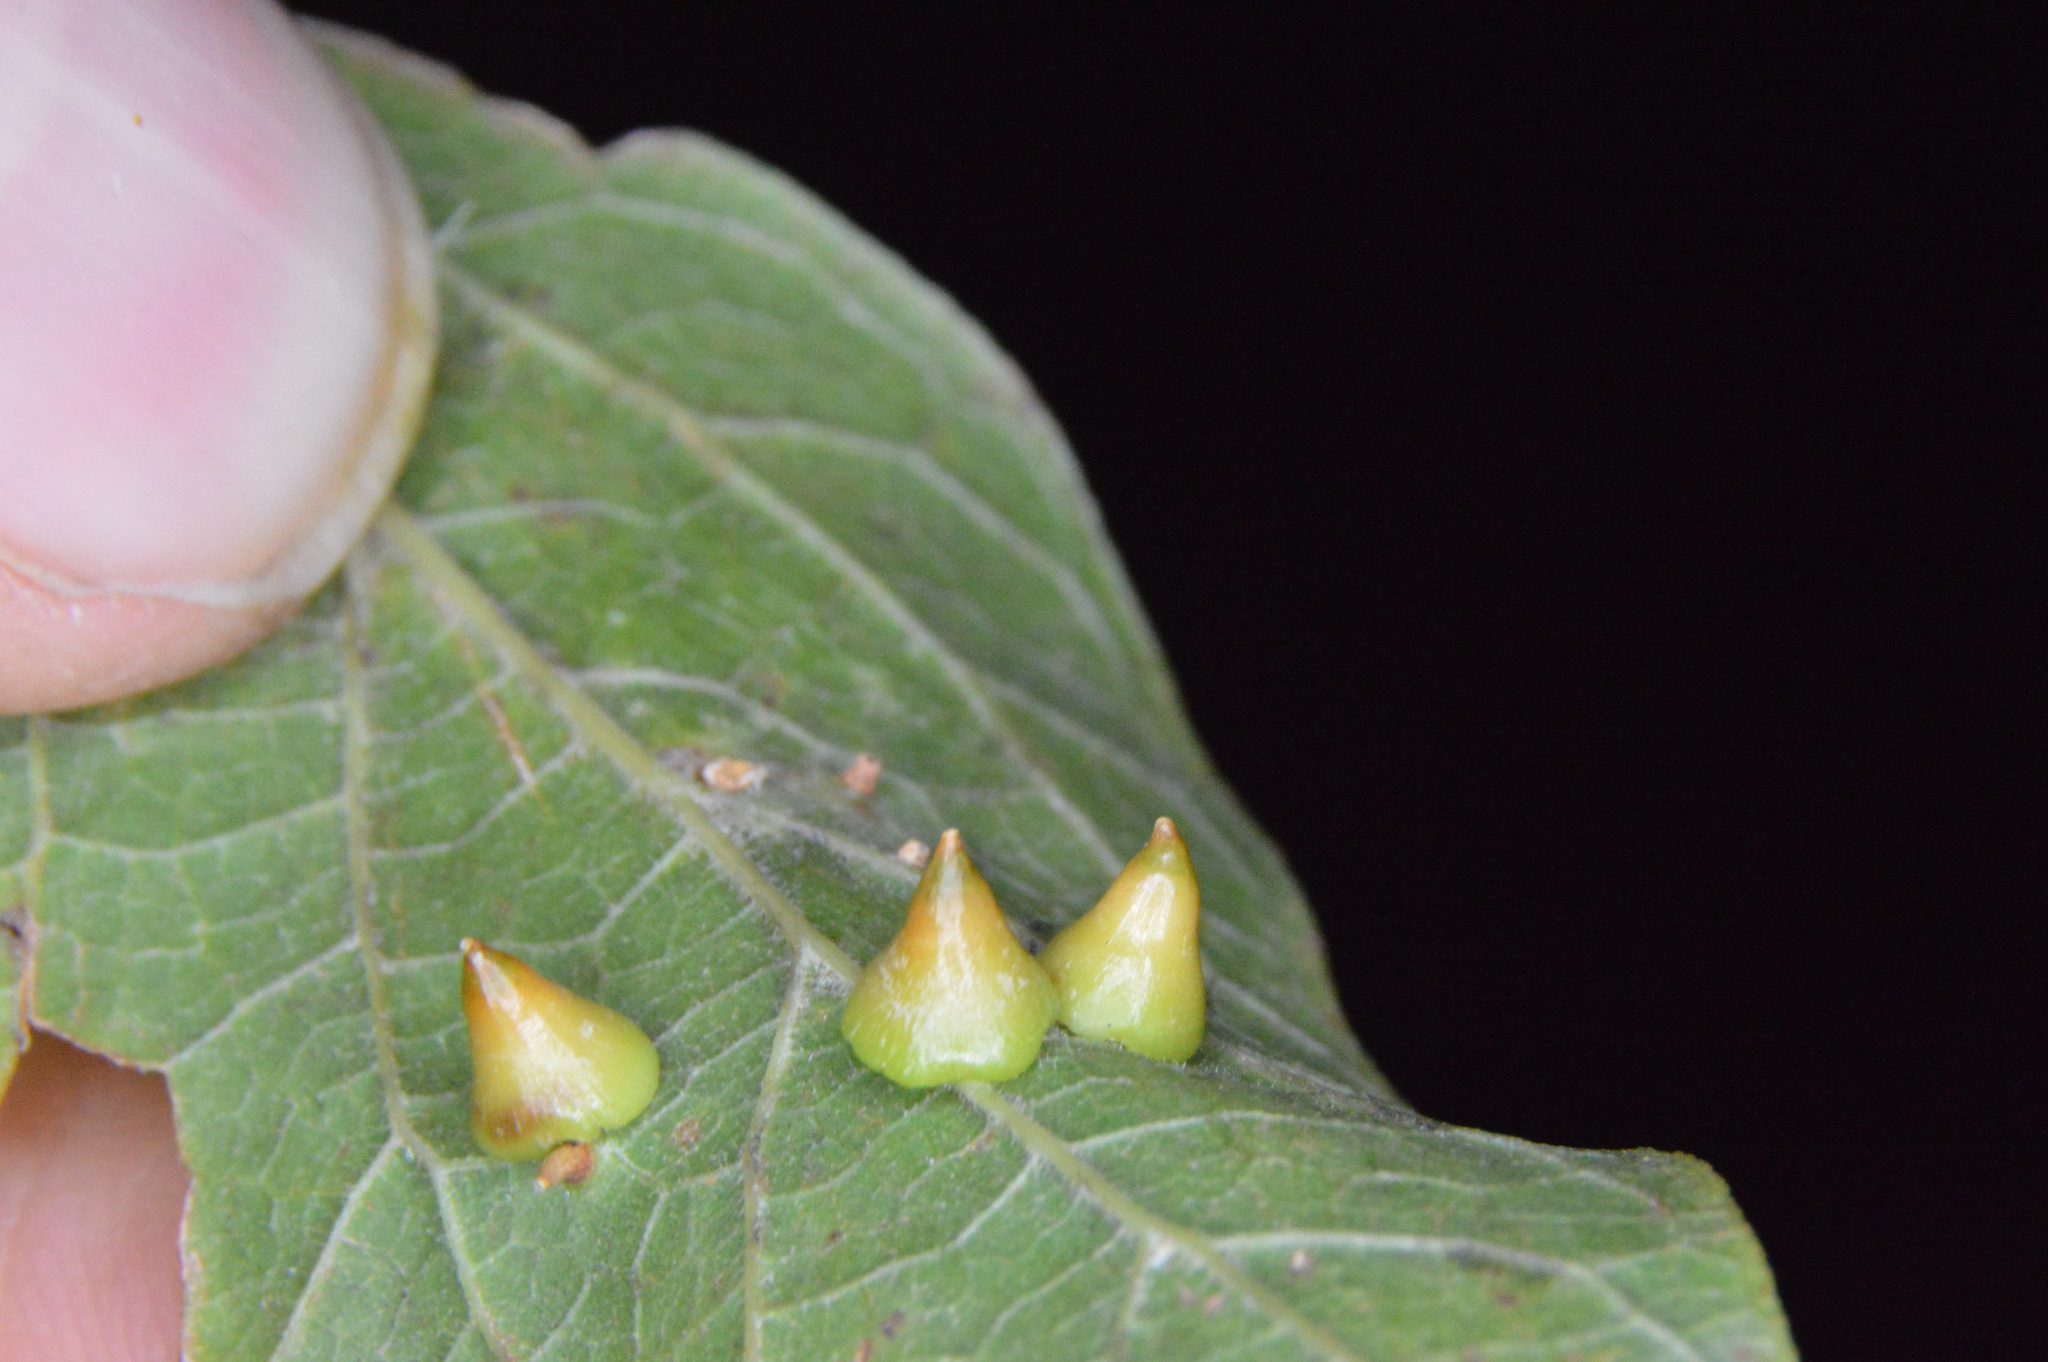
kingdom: Animalia
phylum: Arthropoda
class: Insecta
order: Diptera
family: Cecidomyiidae
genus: Celticecis
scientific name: Celticecis spiniformis
